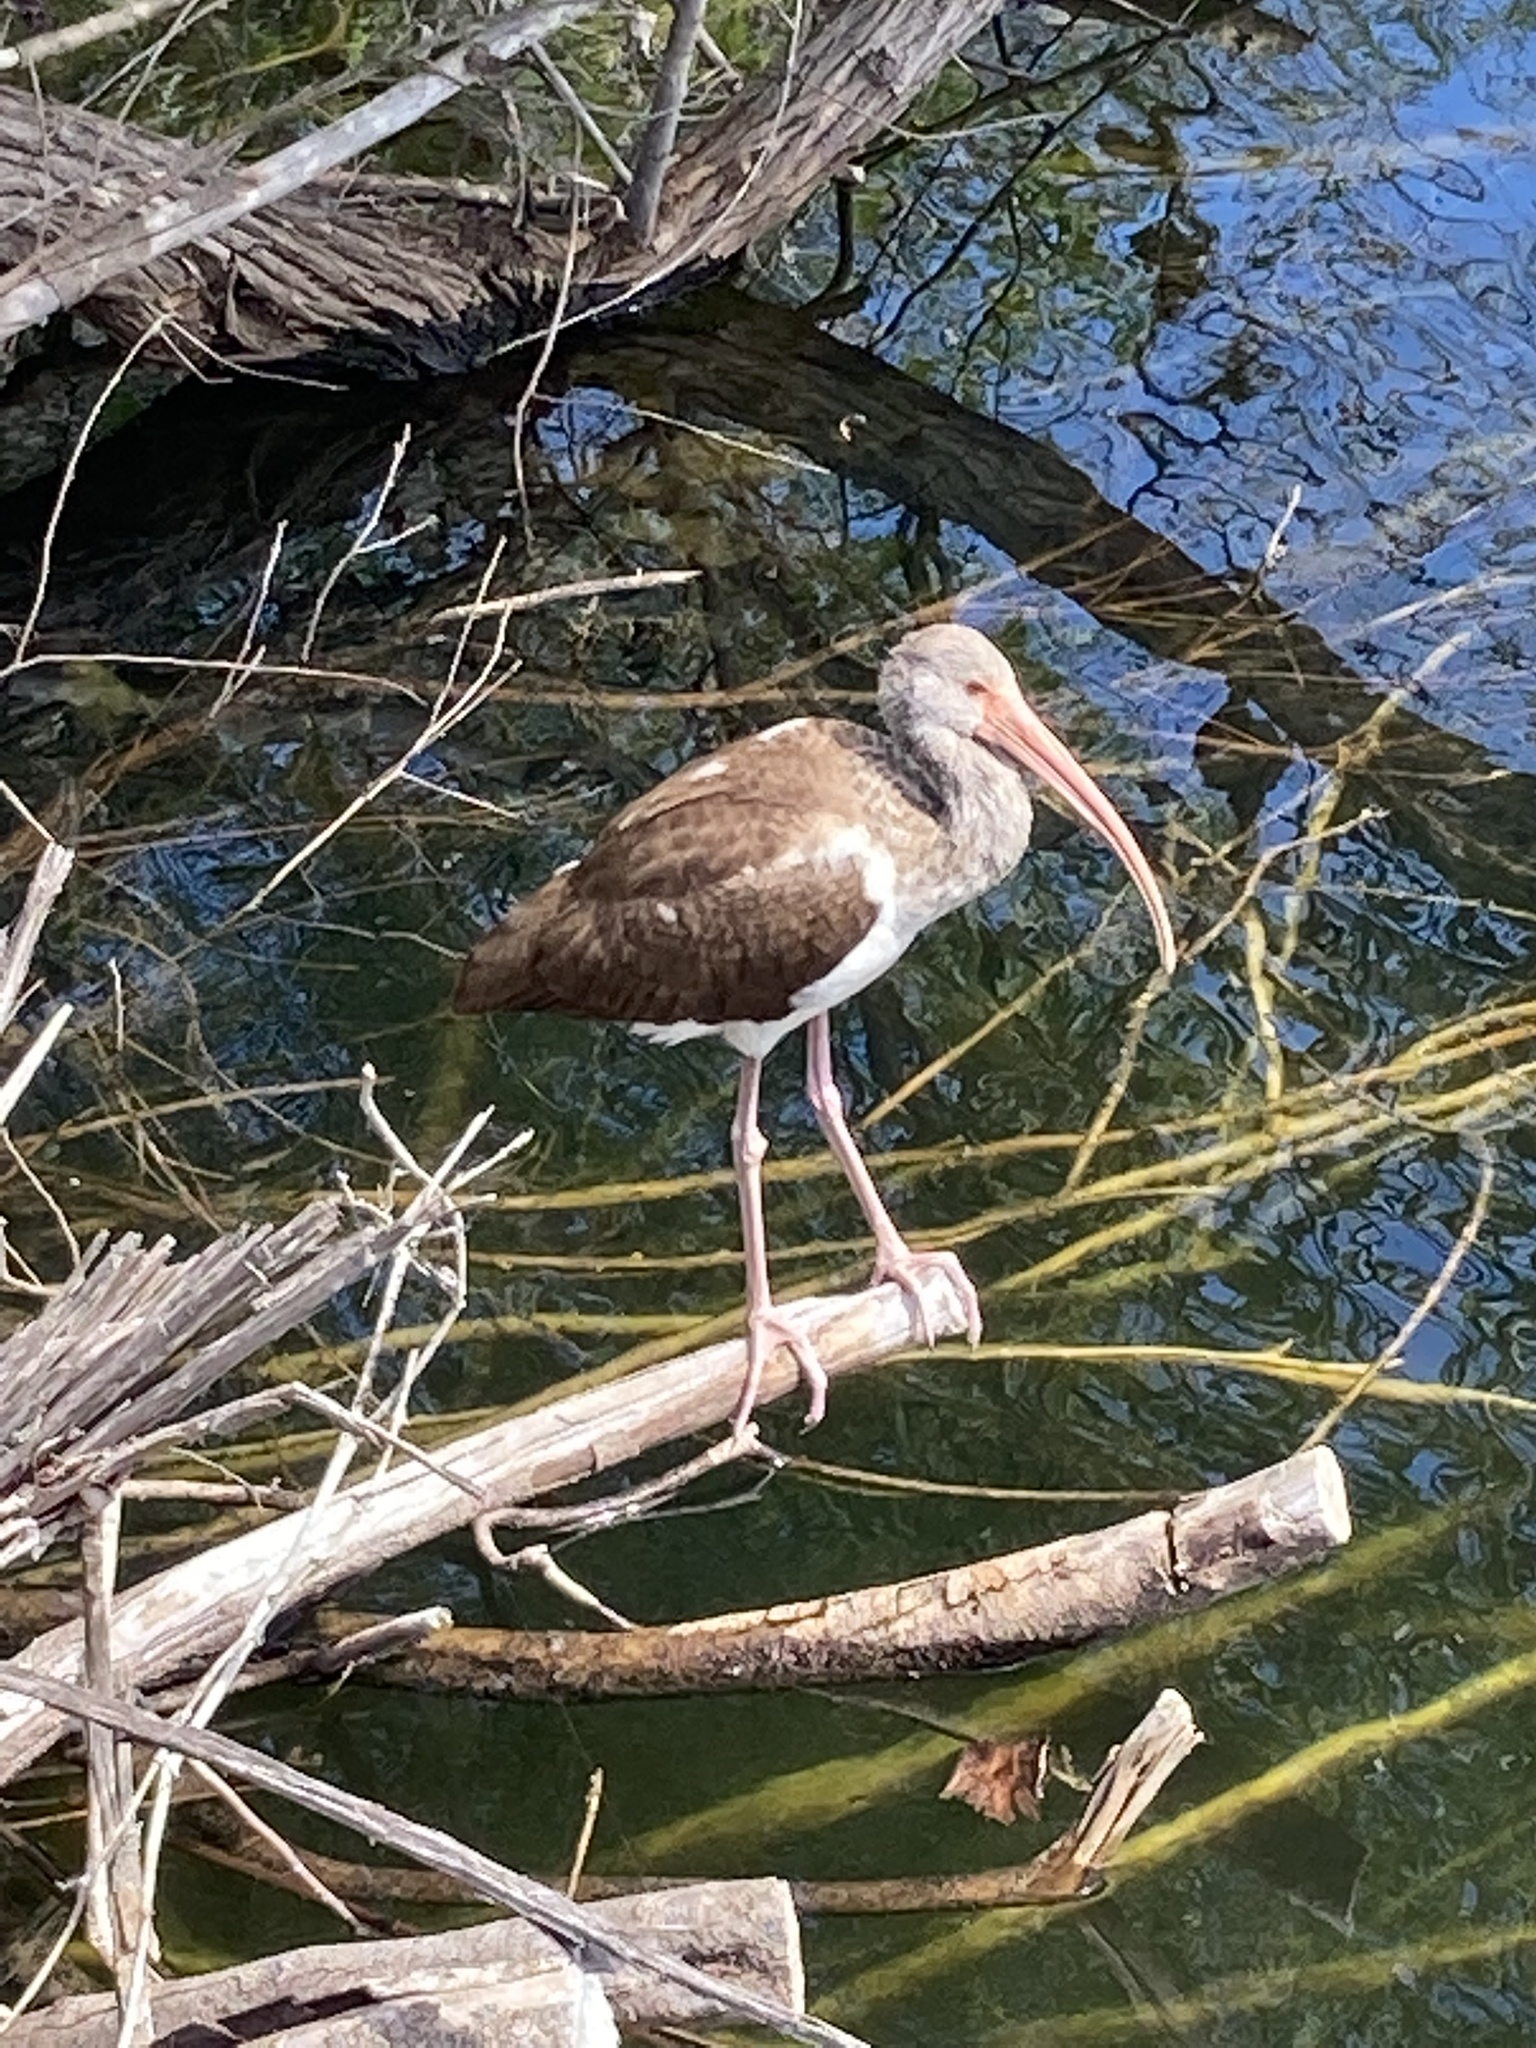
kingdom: Animalia
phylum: Chordata
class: Aves
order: Pelecaniformes
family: Threskiornithidae
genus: Eudocimus
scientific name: Eudocimus albus
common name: White ibis
